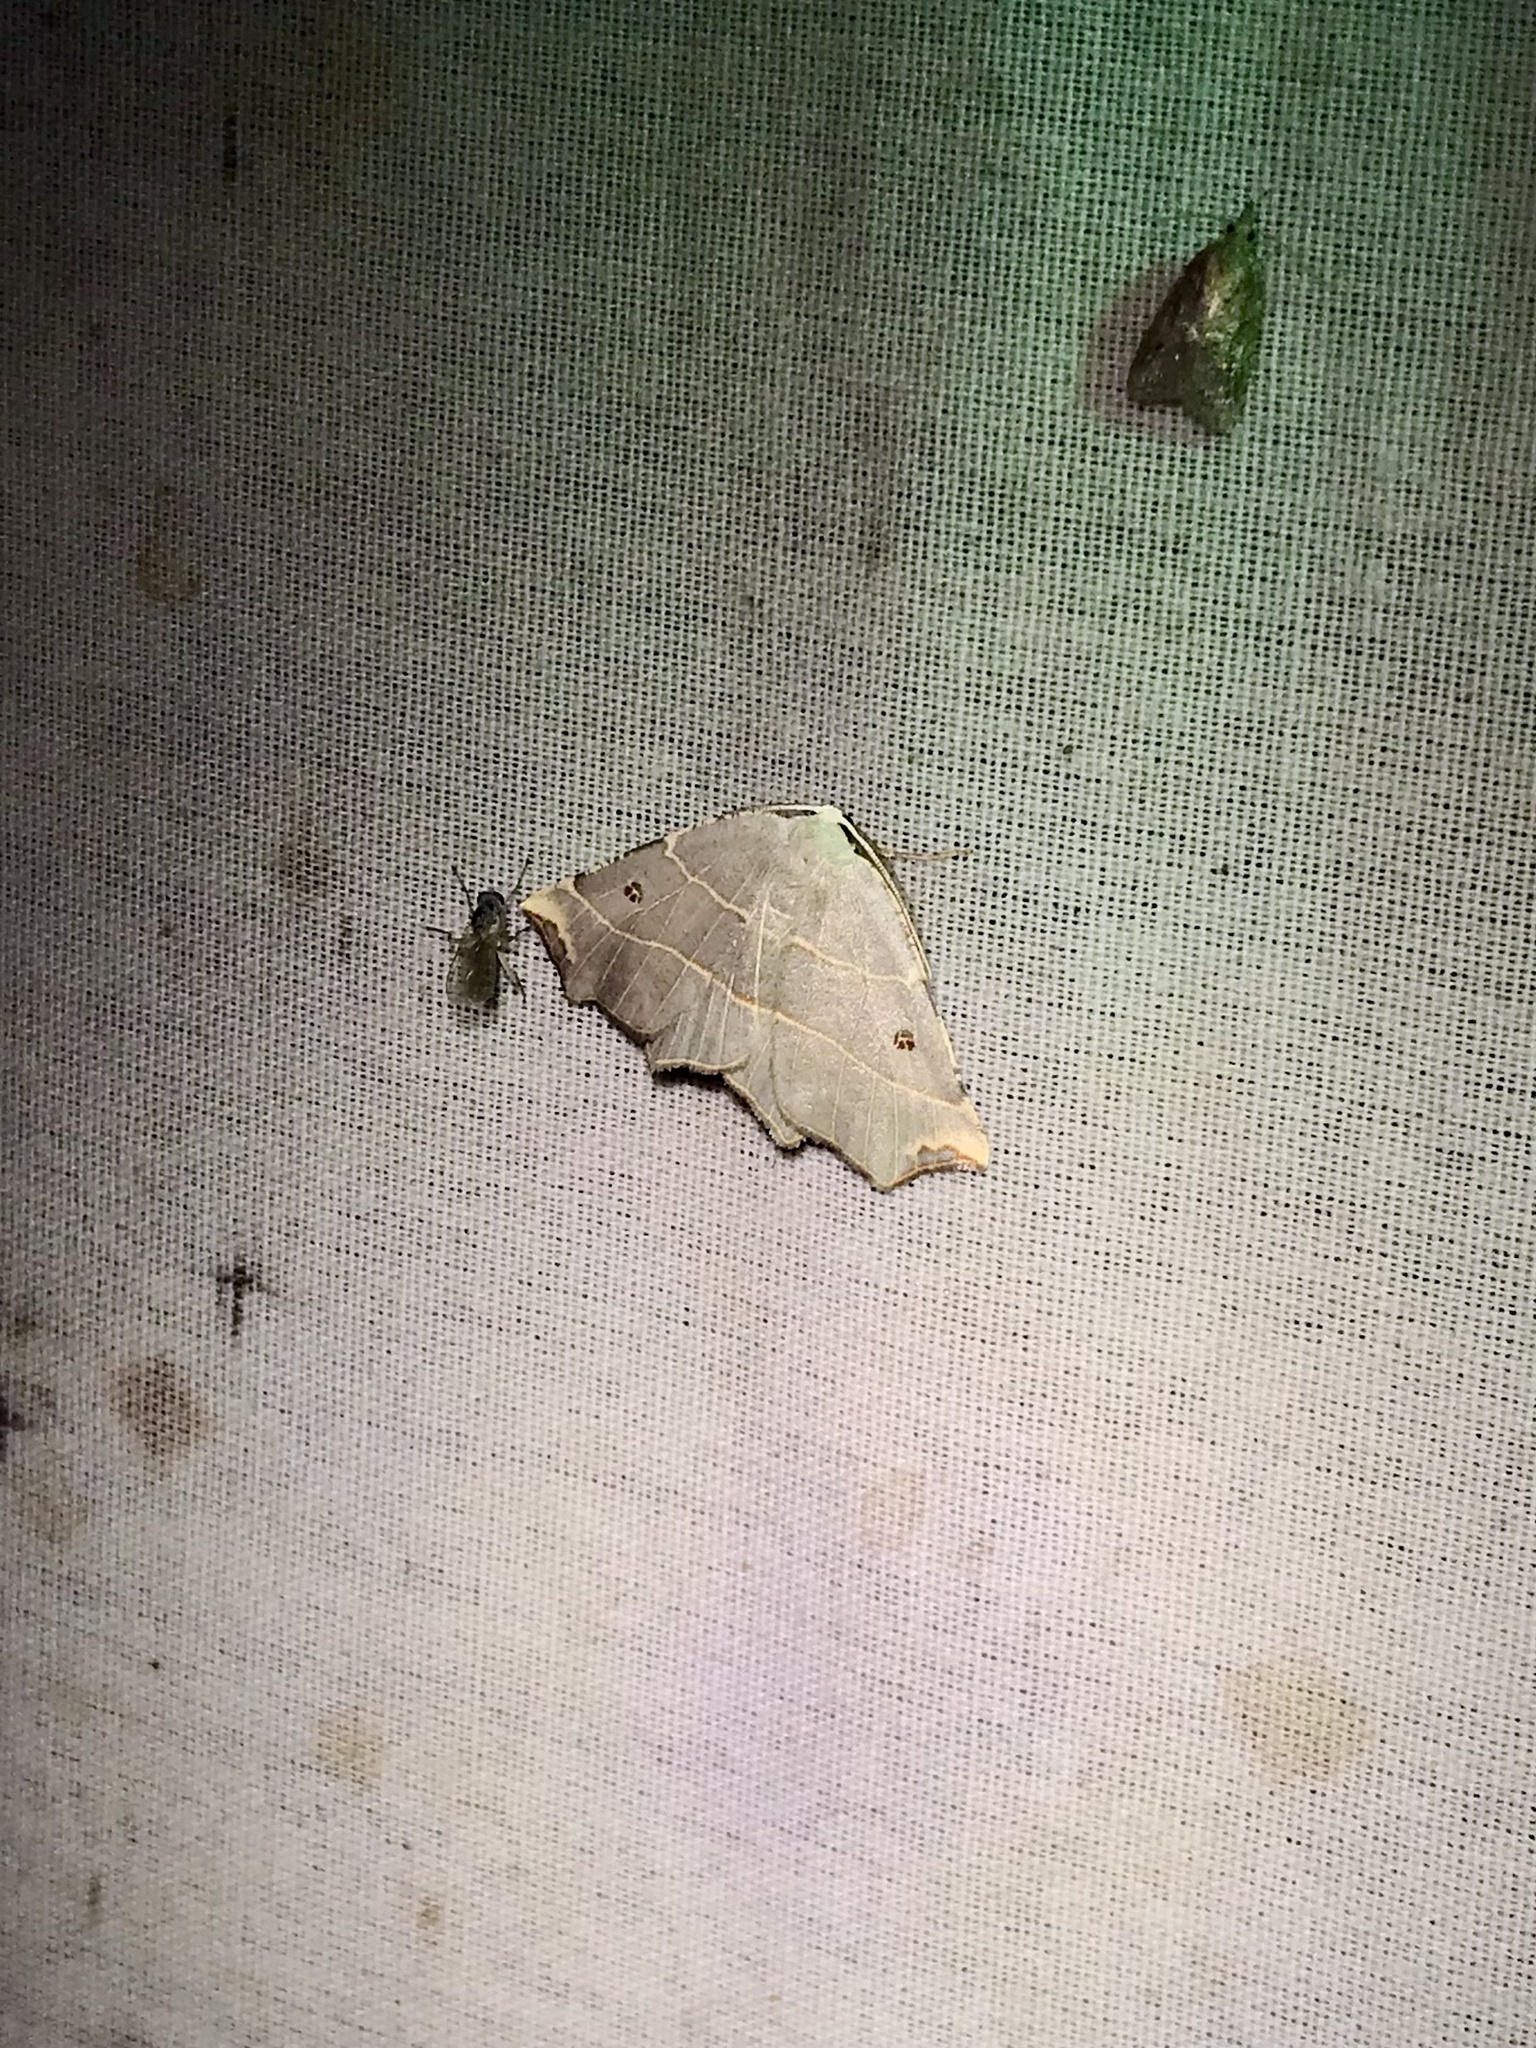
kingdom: Animalia
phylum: Arthropoda
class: Insecta
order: Lepidoptera
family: Geometridae
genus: Metanema
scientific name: Metanema inatomaria
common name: Pale metanema
